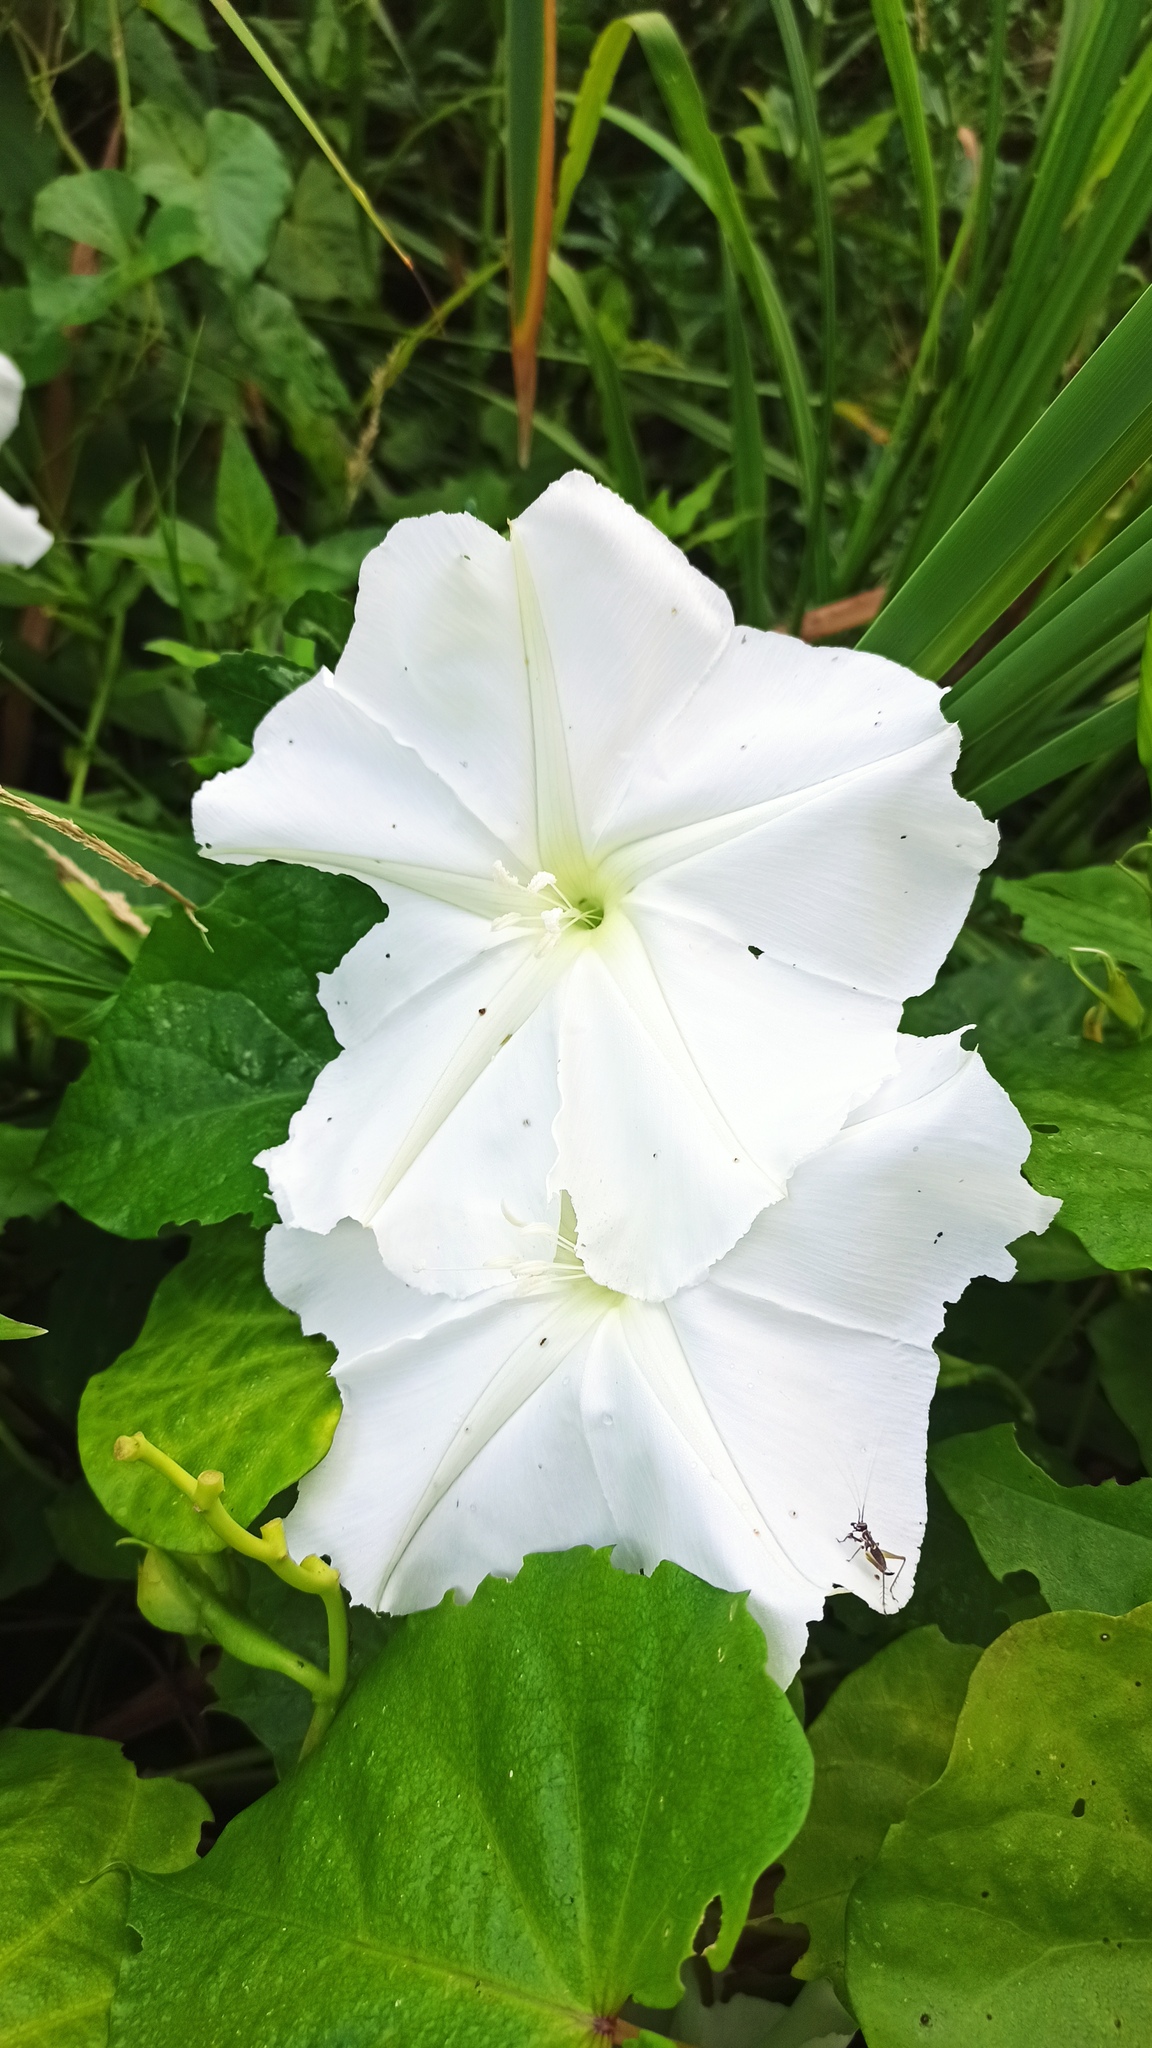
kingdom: Plantae
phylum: Tracheophyta
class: Magnoliopsida
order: Solanales
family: Convolvulaceae
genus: Ipomoea
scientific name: Ipomoea alba
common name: Moonflower
